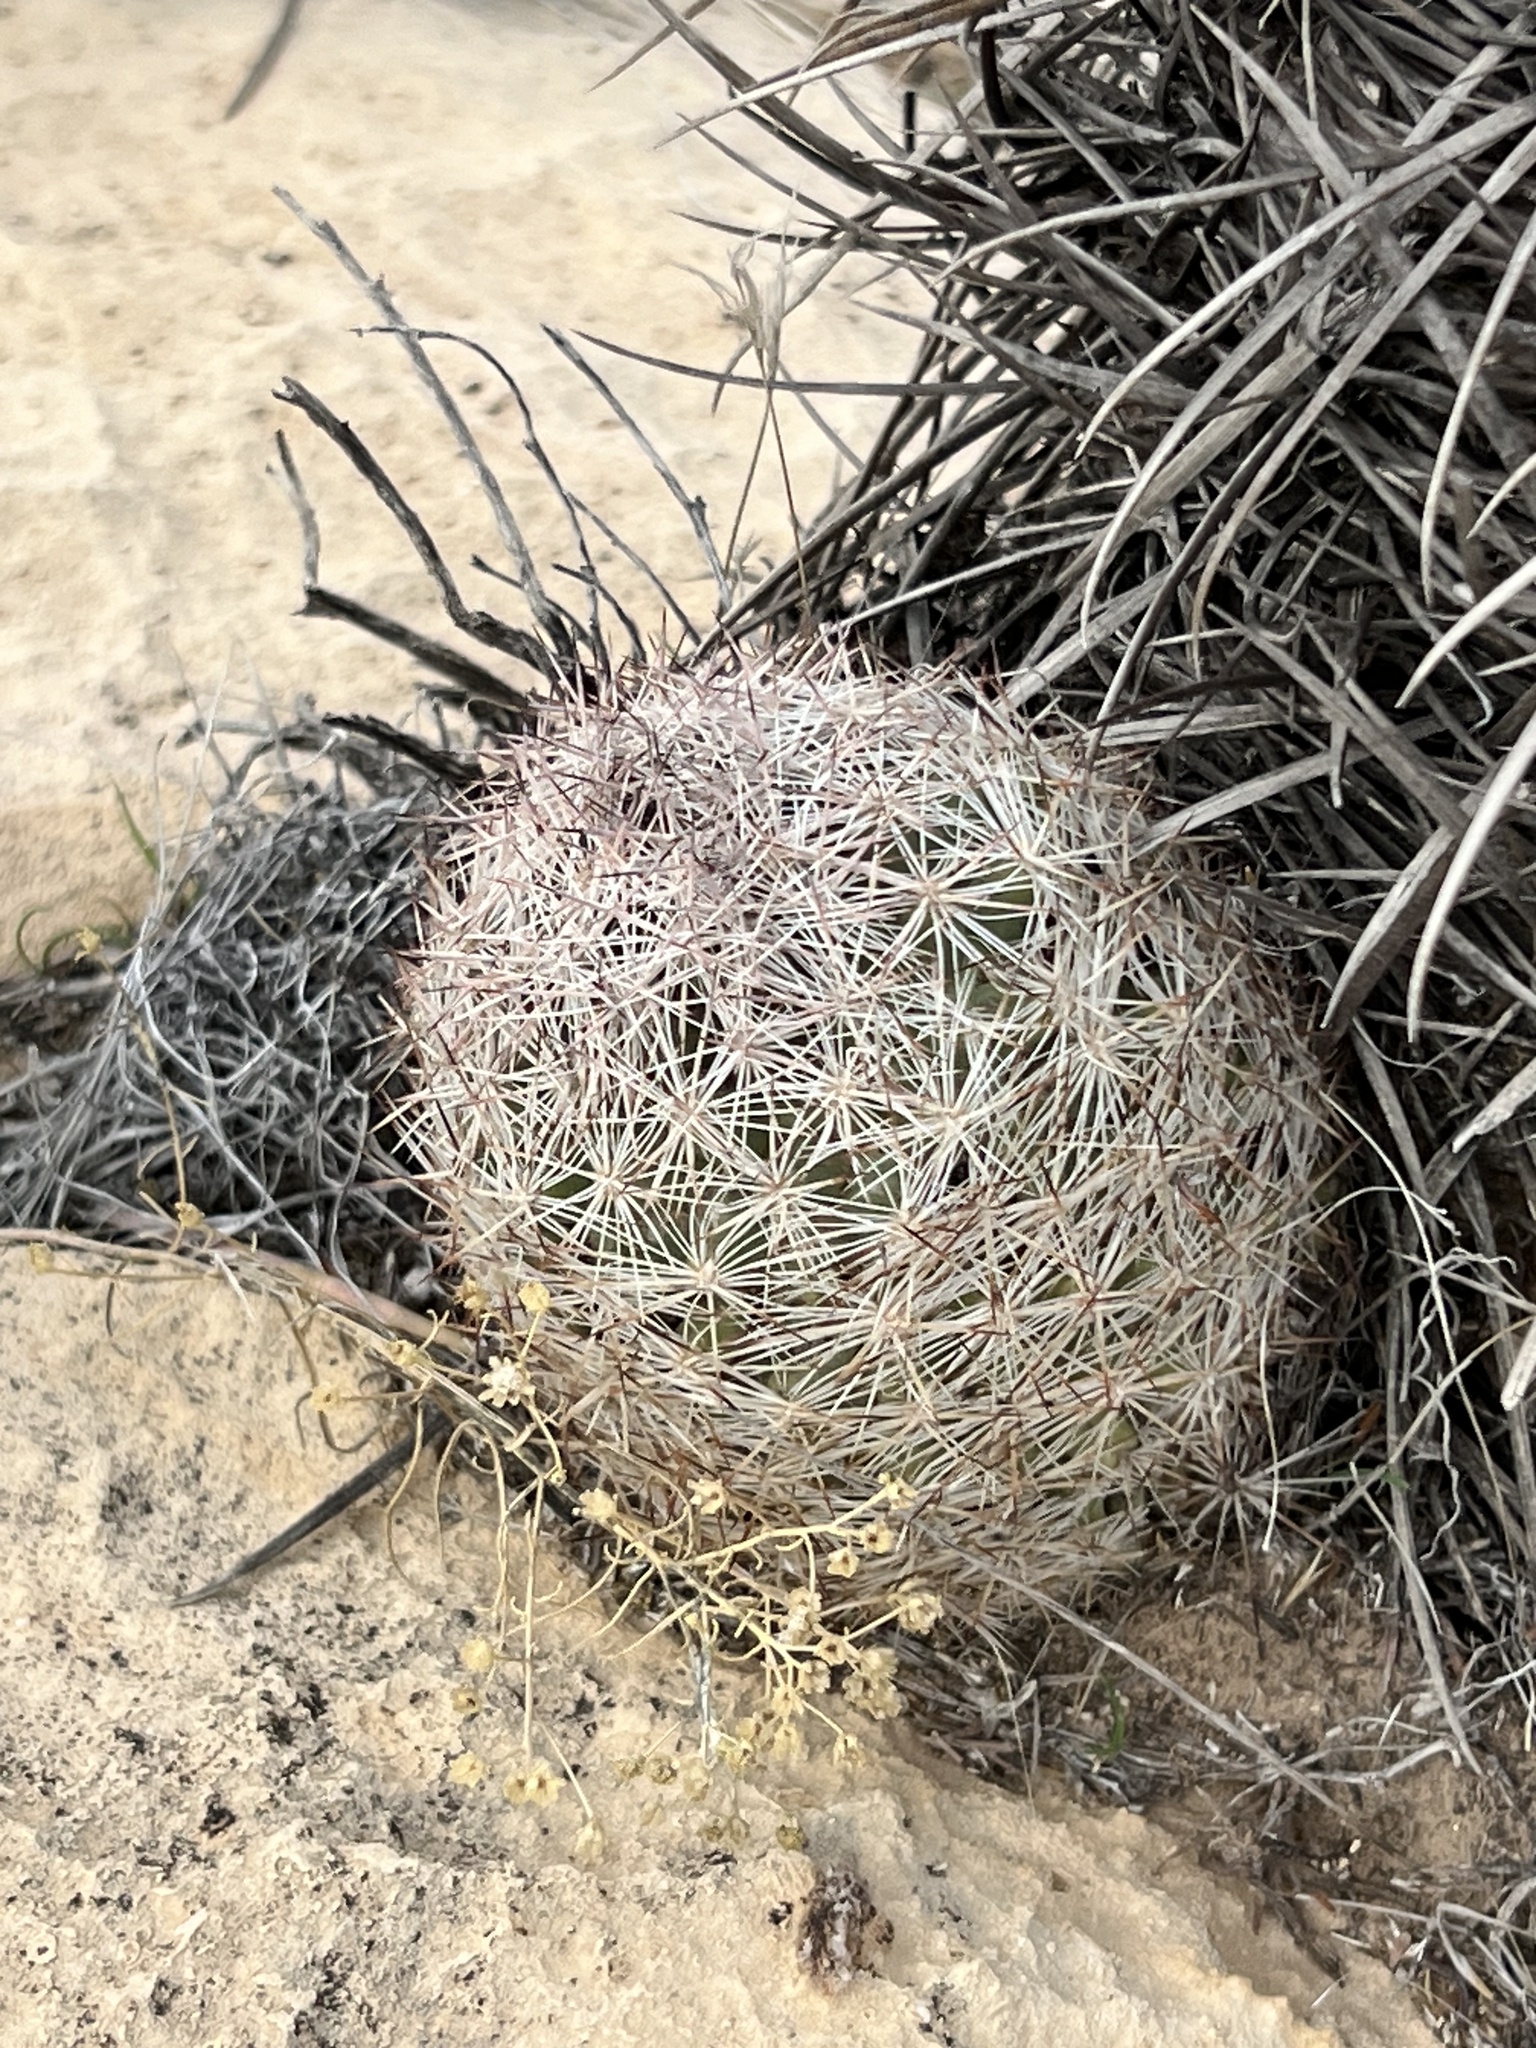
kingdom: Plantae
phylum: Tracheophyta
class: Magnoliopsida
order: Caryophyllales
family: Cactaceae
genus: Pelecyphora
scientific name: Pelecyphora dasyacantha
